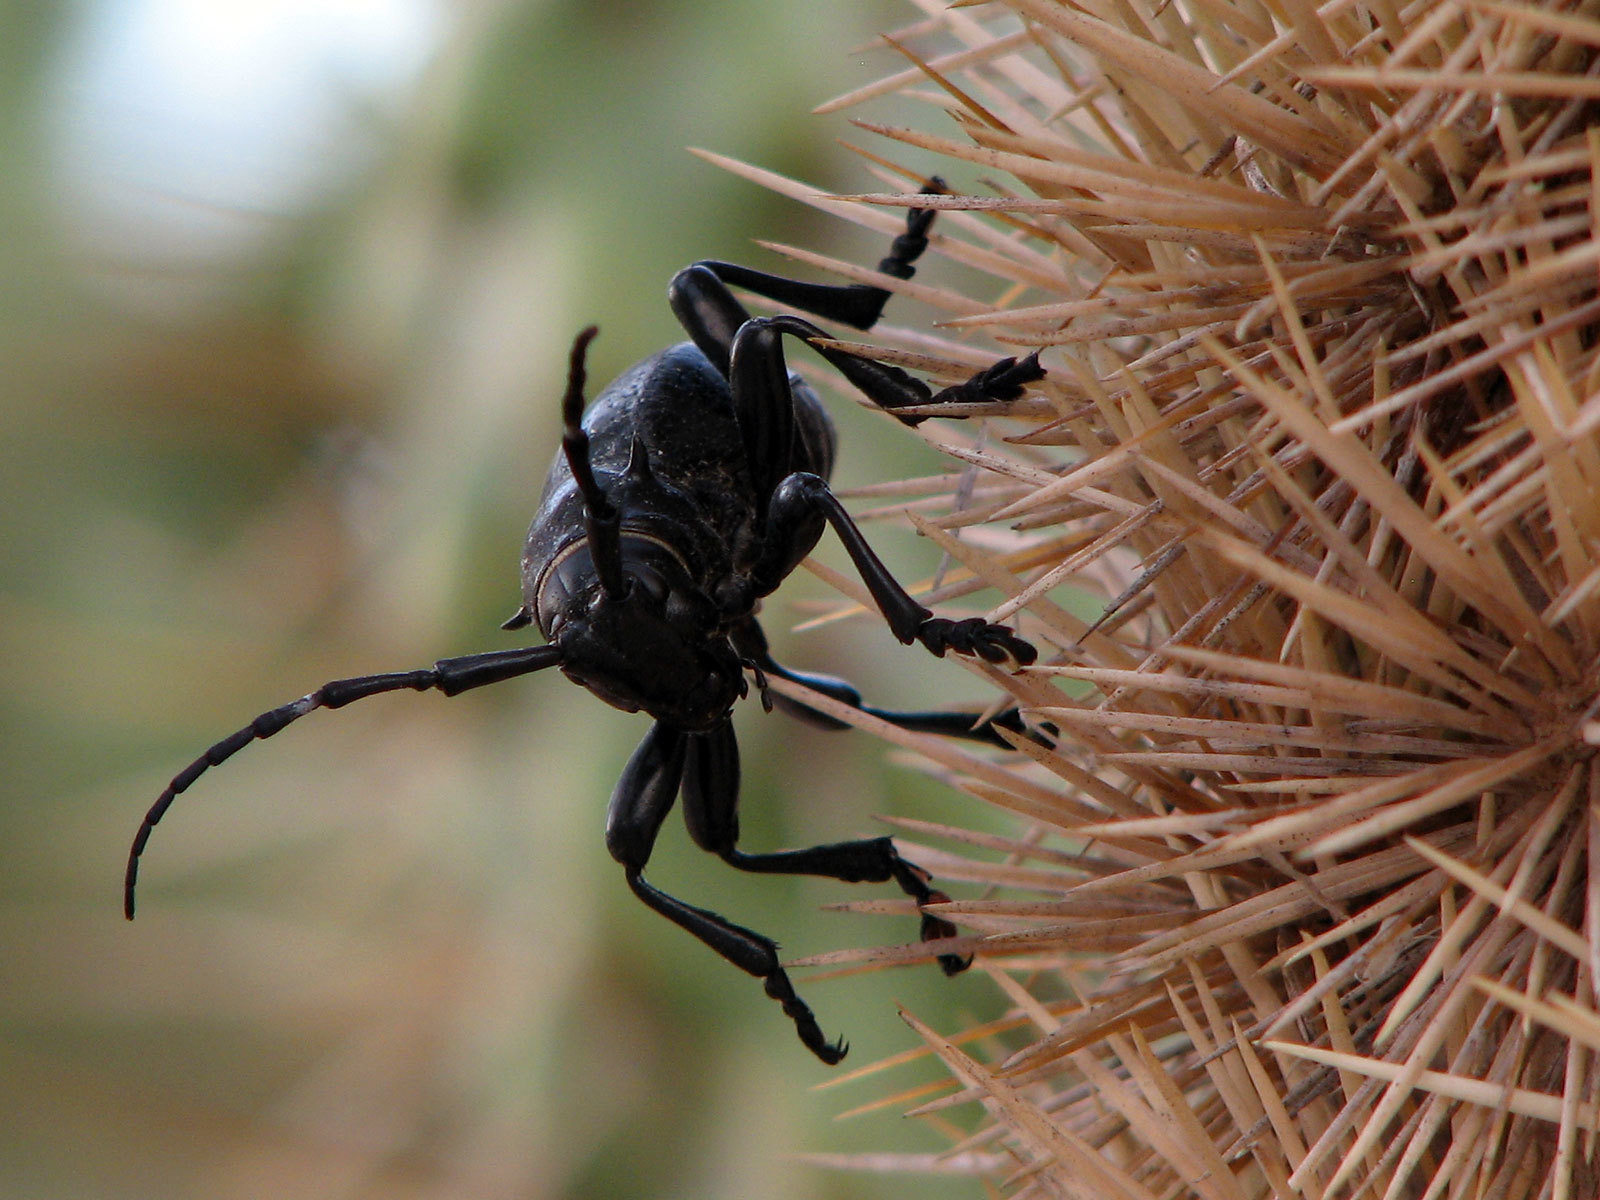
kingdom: Animalia
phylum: Arthropoda
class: Insecta
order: Coleoptera
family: Cerambycidae
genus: Moneilema
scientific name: Moneilema gigas
